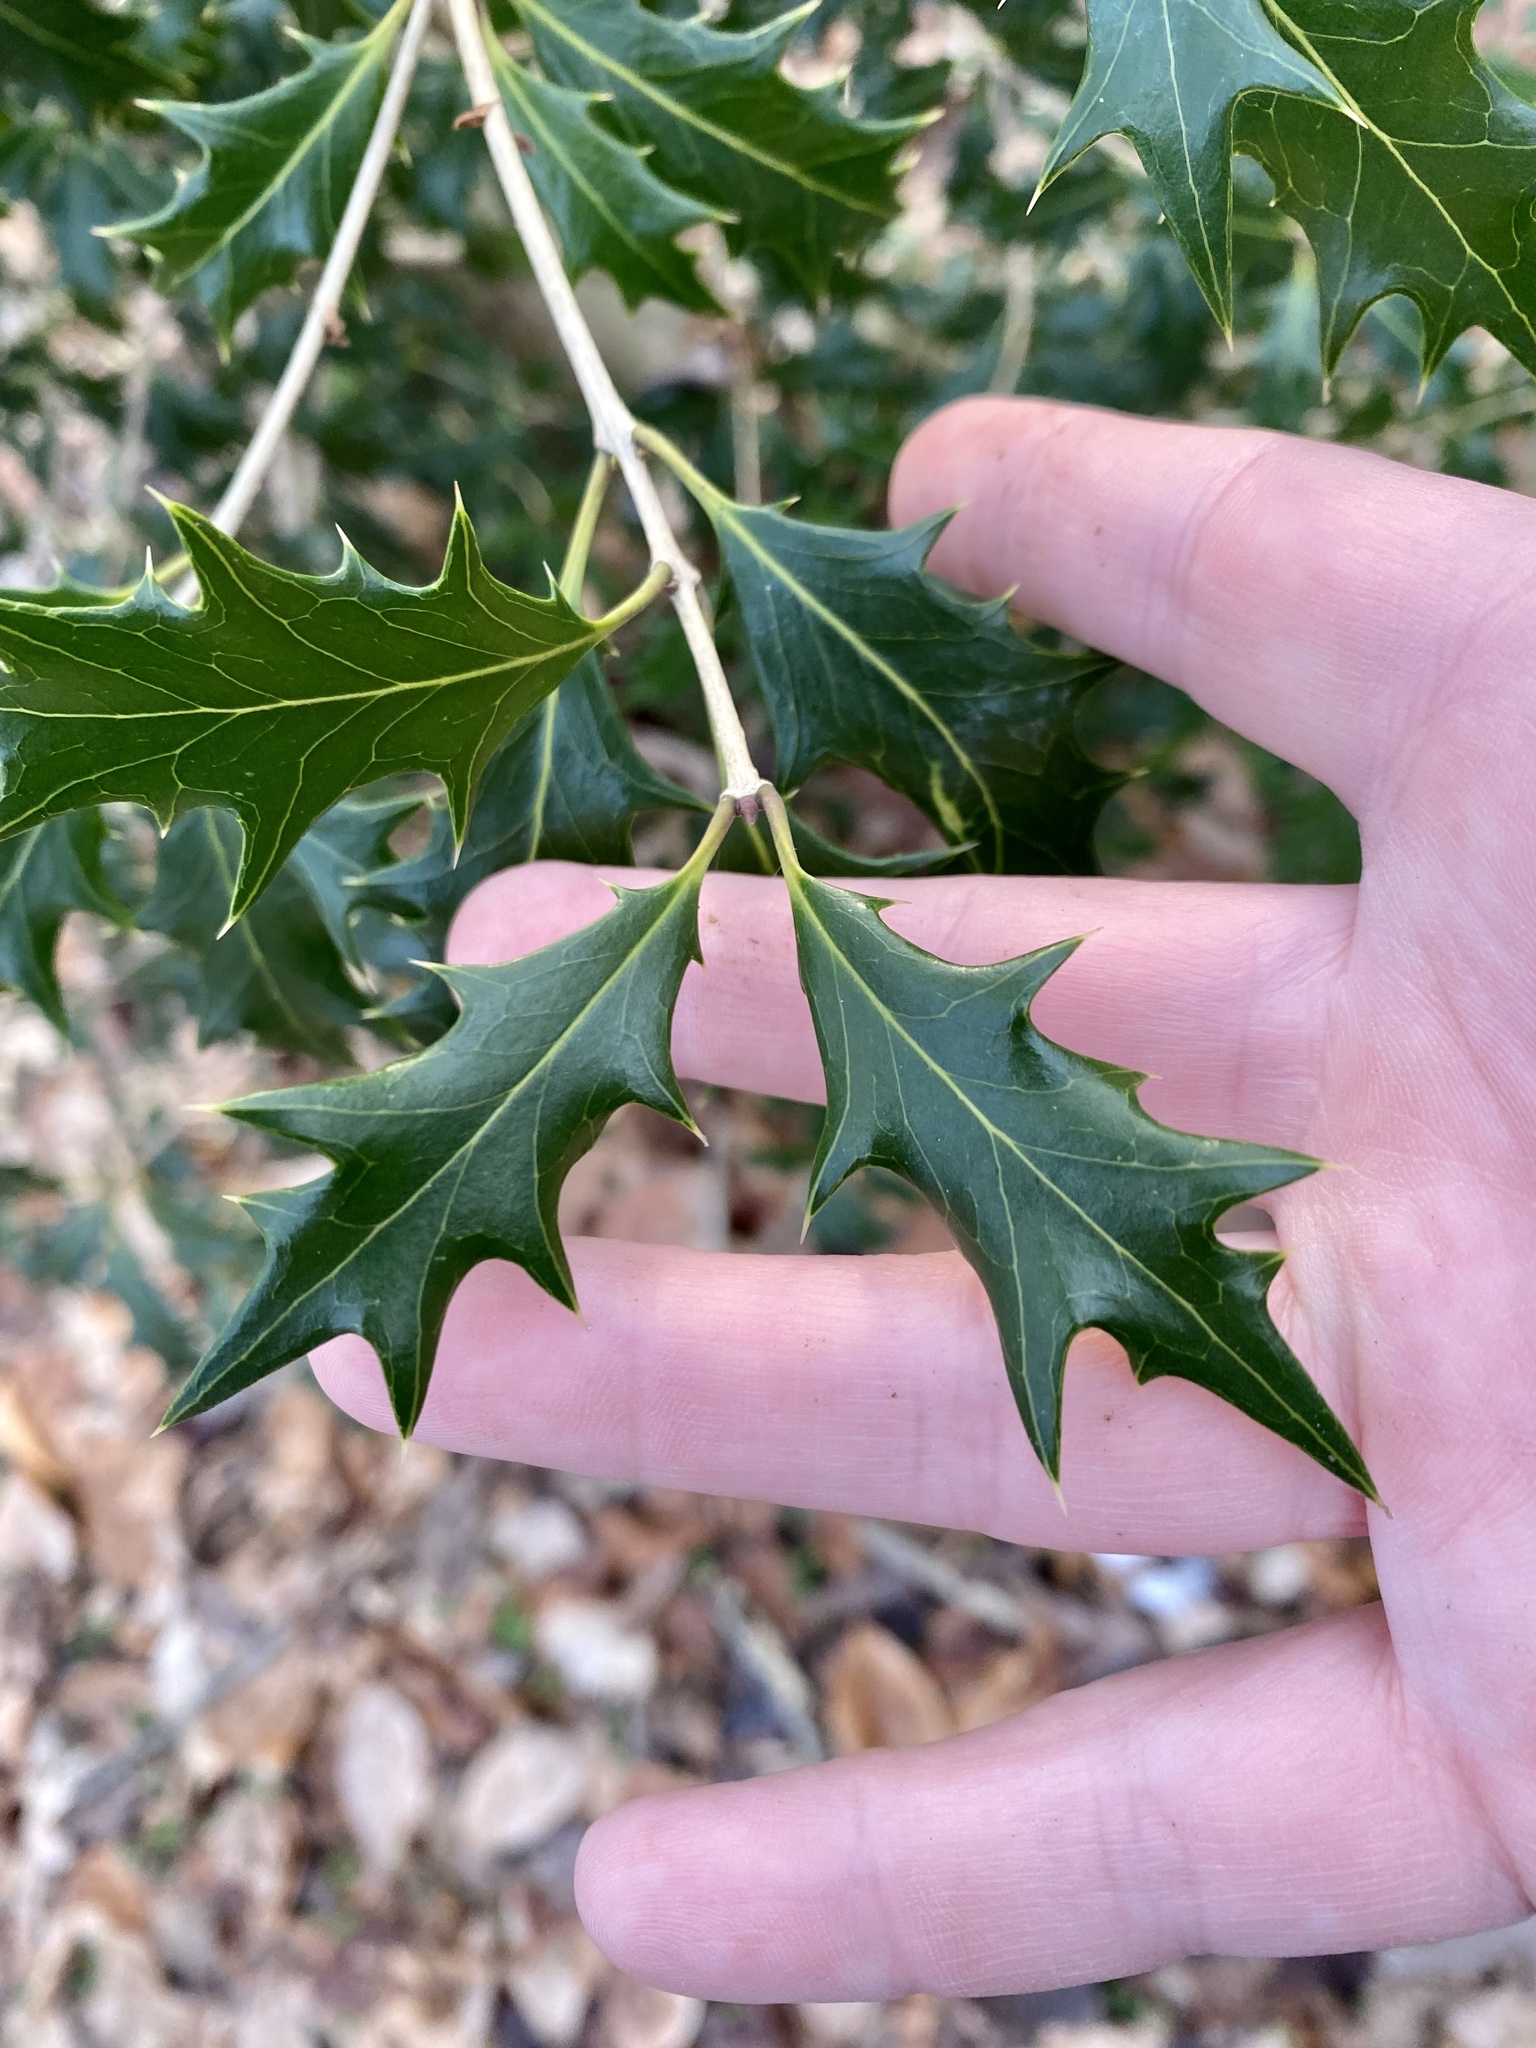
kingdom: Plantae
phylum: Tracheophyta
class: Magnoliopsida
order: Lamiales
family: Oleaceae
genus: Osmanthus
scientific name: Osmanthus heterophyllus
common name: Holly osmanthus
